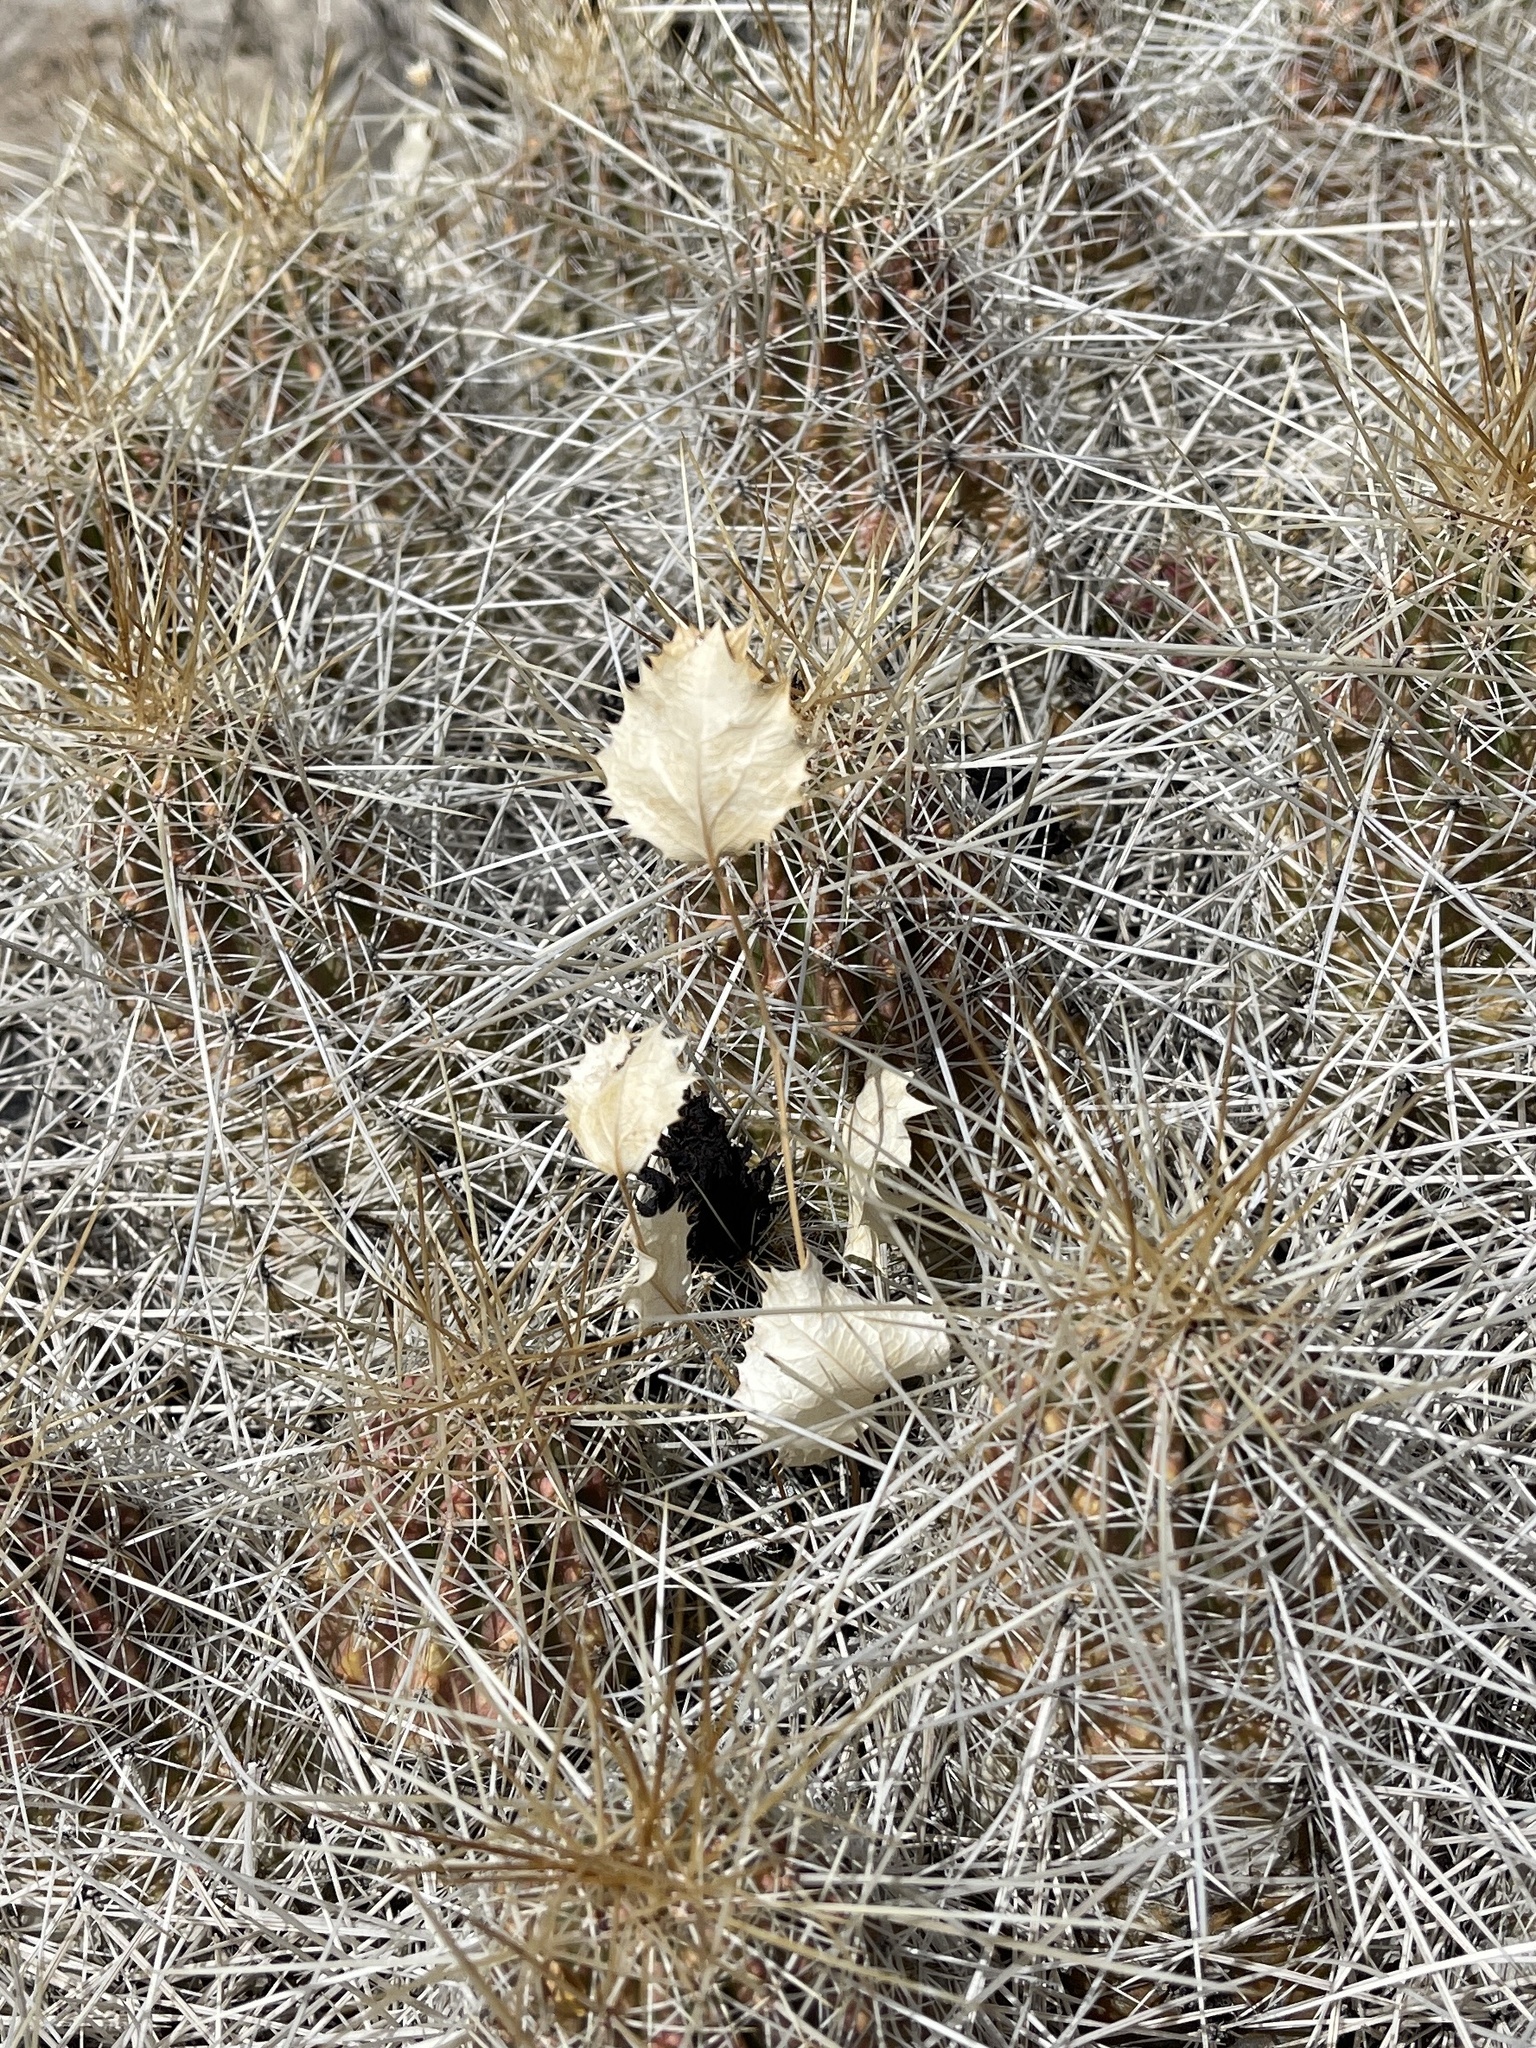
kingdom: Plantae
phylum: Tracheophyta
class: Magnoliopsida
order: Asterales
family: Asteraceae
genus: Acourtia
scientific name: Acourtia nana
